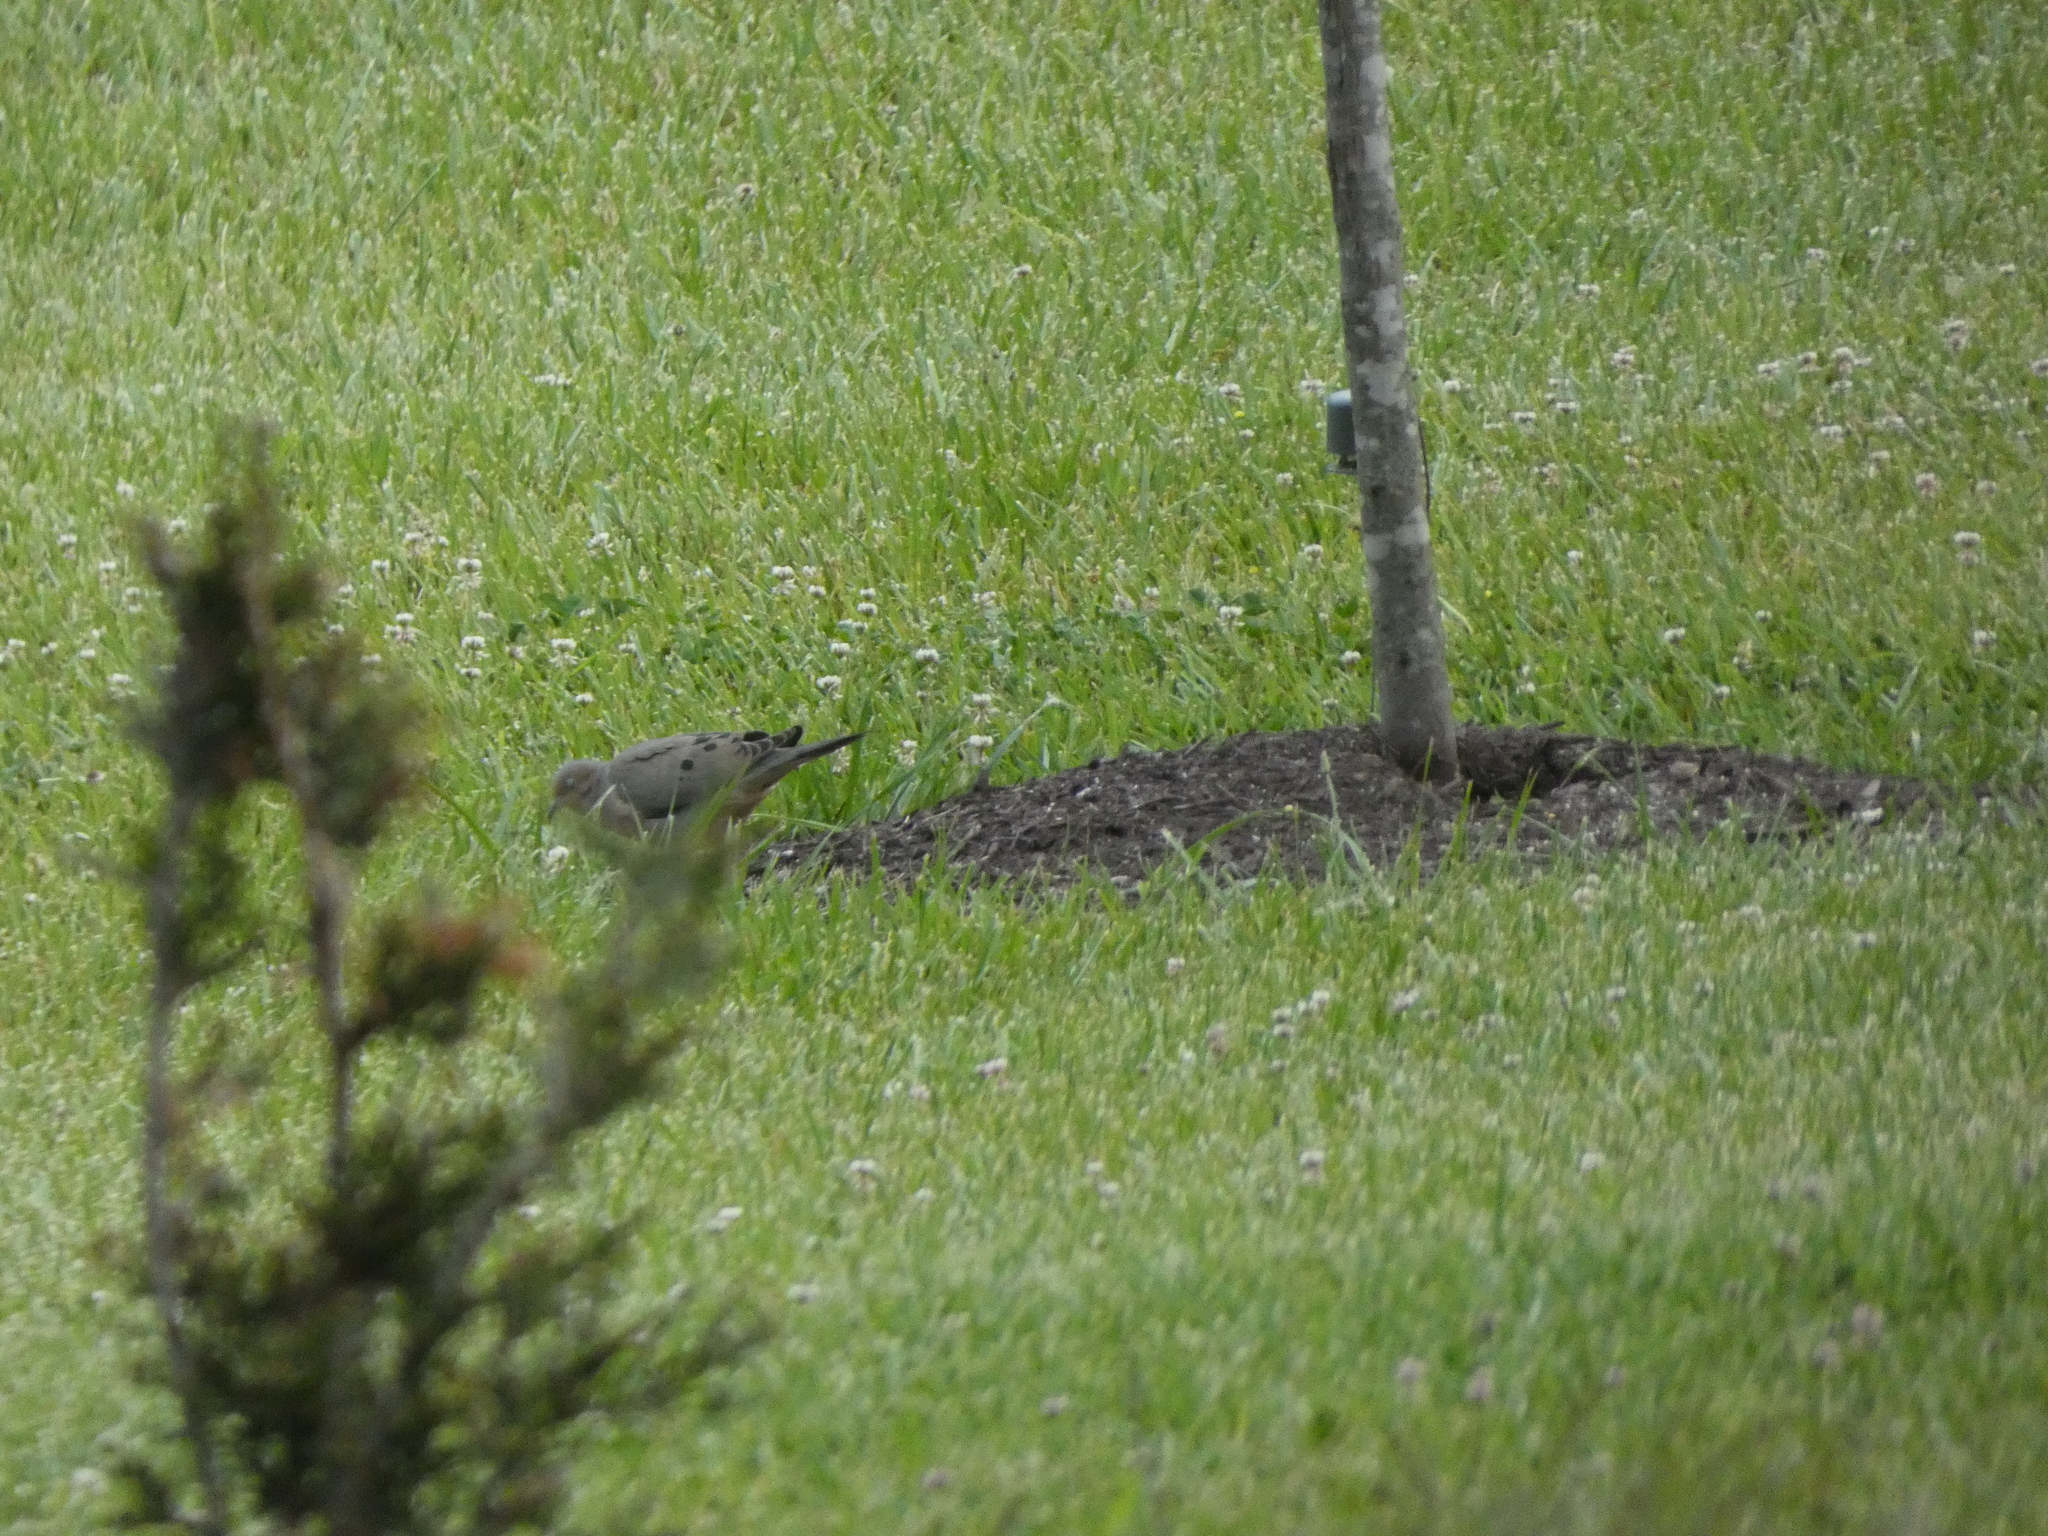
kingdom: Animalia
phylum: Chordata
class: Aves
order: Columbiformes
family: Columbidae
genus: Zenaida
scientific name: Zenaida macroura
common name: Mourning dove
